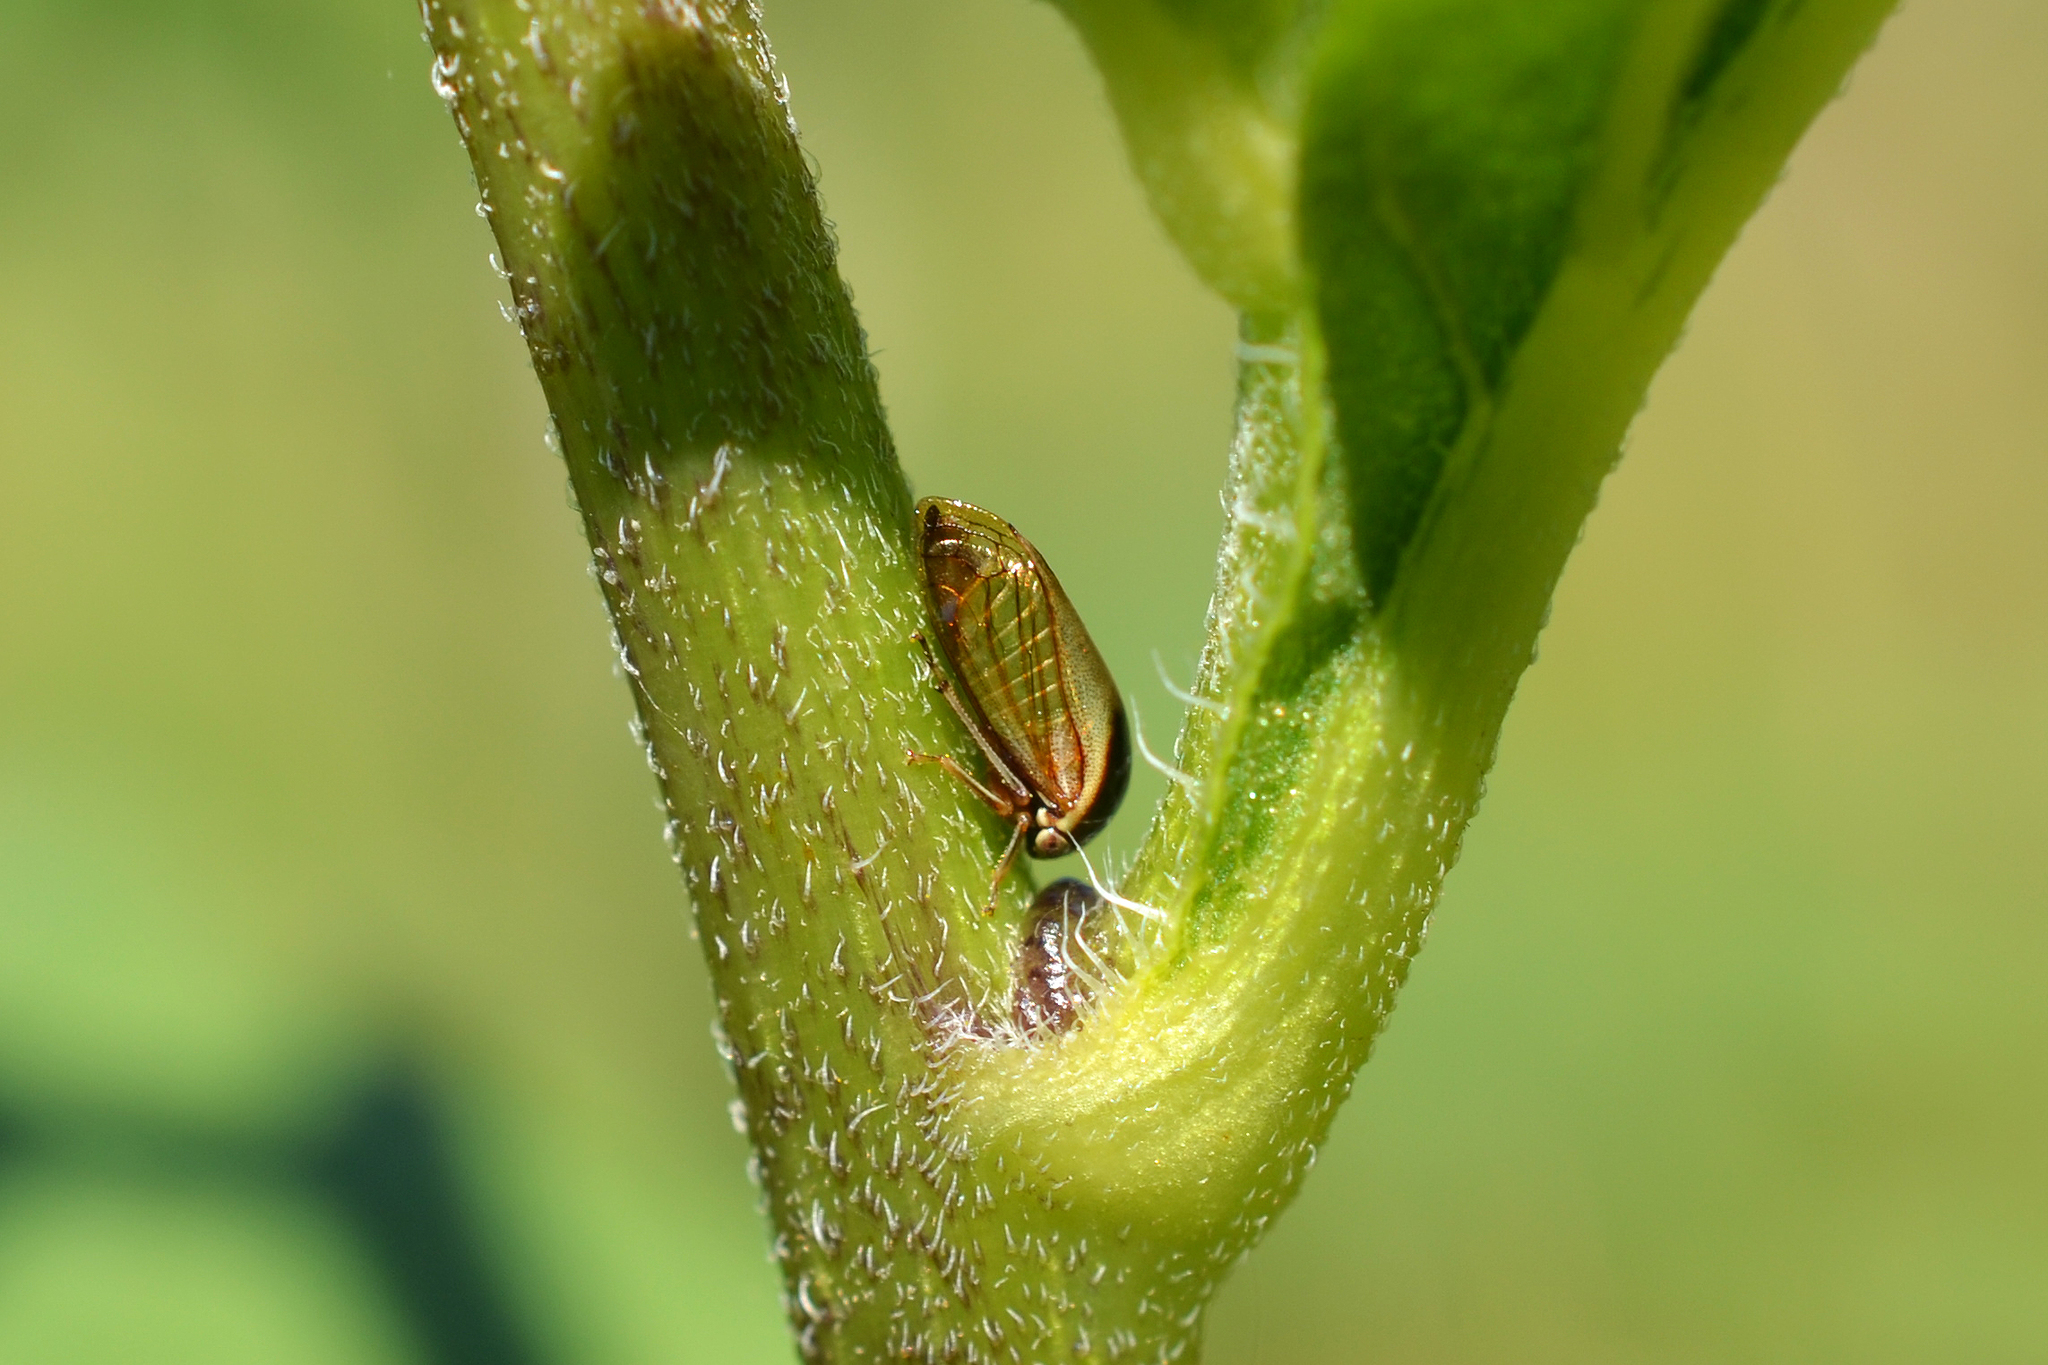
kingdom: Animalia
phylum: Arthropoda
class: Insecta
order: Hemiptera
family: Membracidae
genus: Acutalis
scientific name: Acutalis tartarea
